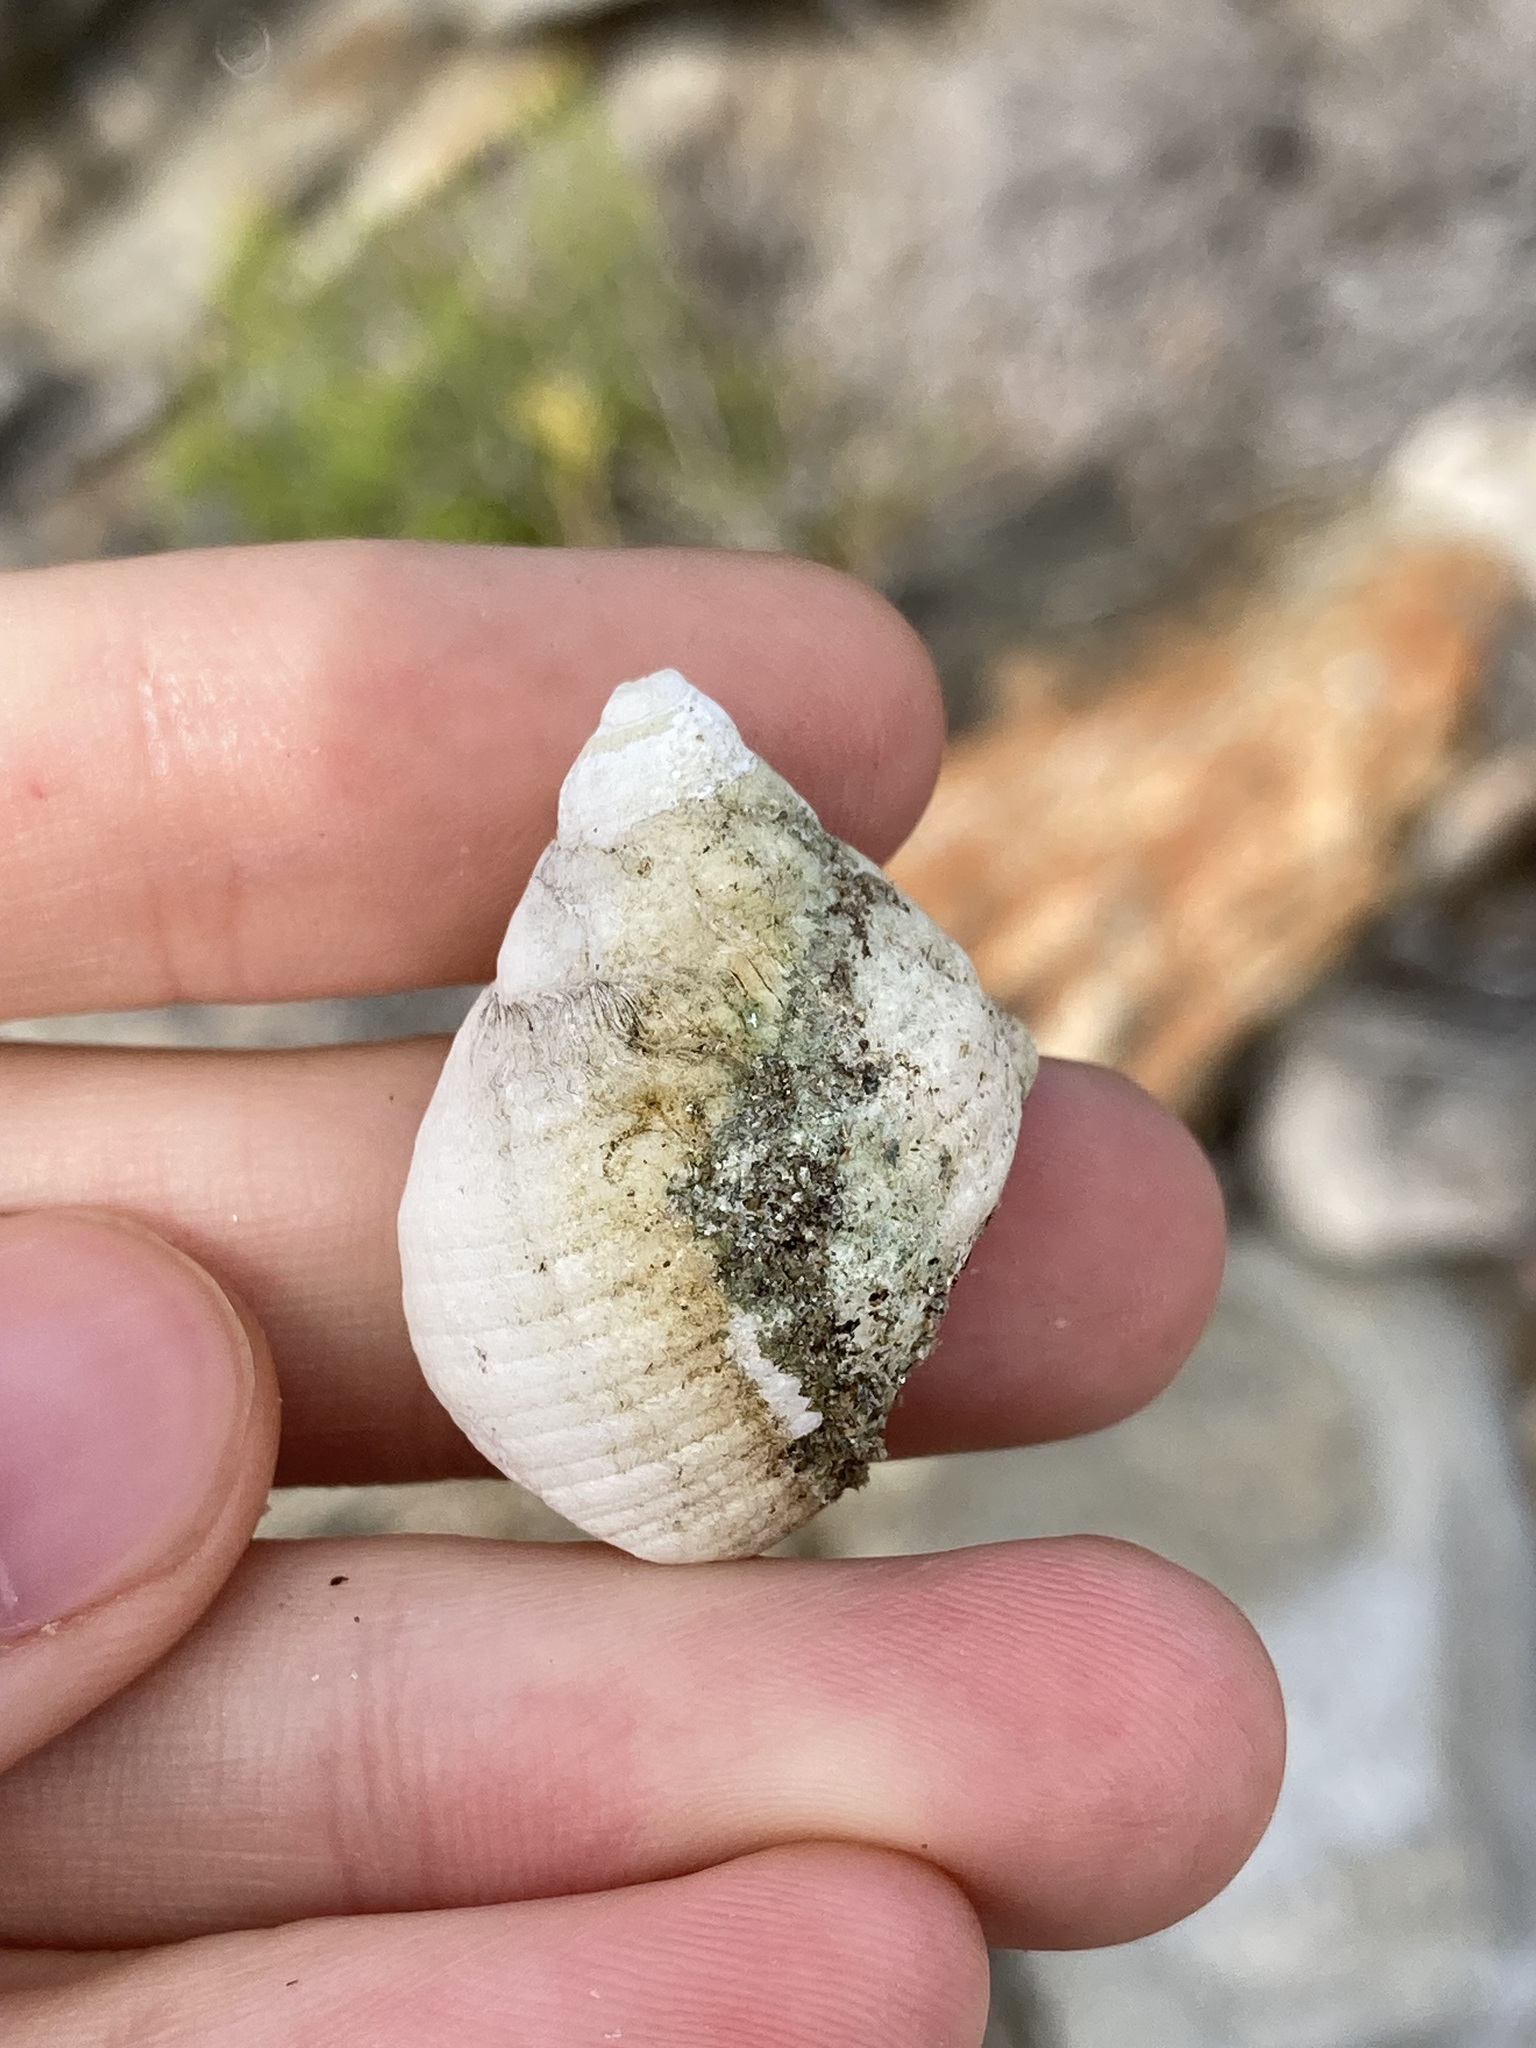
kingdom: Animalia
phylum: Mollusca
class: Gastropoda
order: Neogastropoda
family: Muricidae
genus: Dicathais
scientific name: Dicathais orbita
